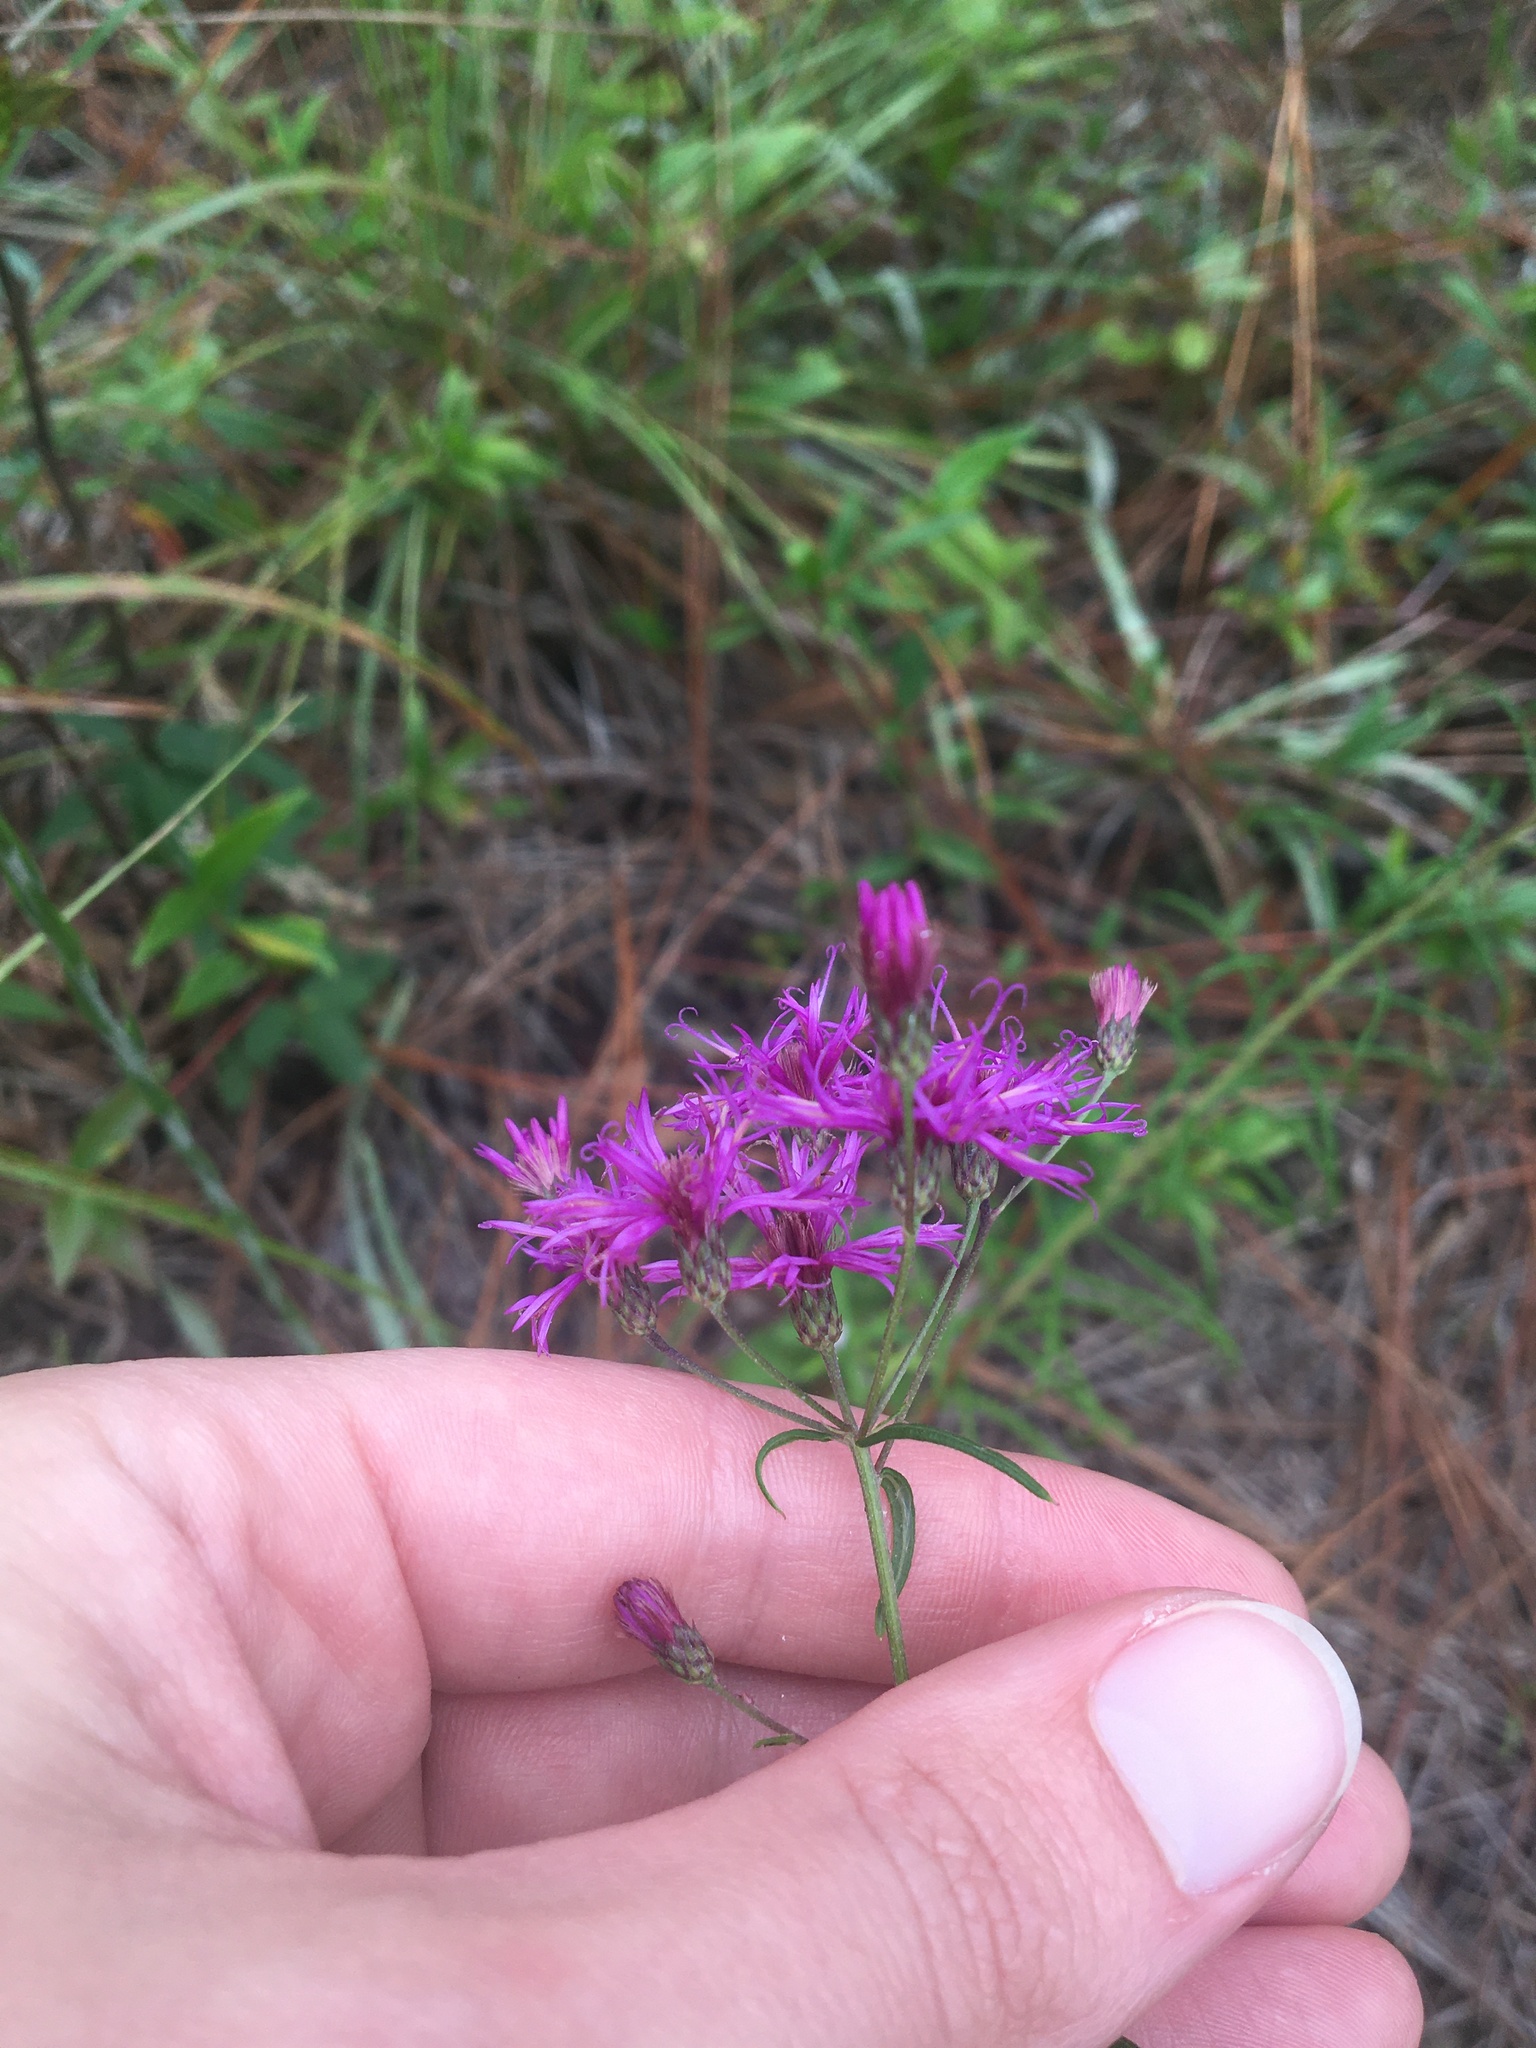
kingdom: Plantae
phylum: Tracheophyta
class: Magnoliopsida
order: Asterales
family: Asteraceae
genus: Vernonia
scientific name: Vernonia angustifolia
